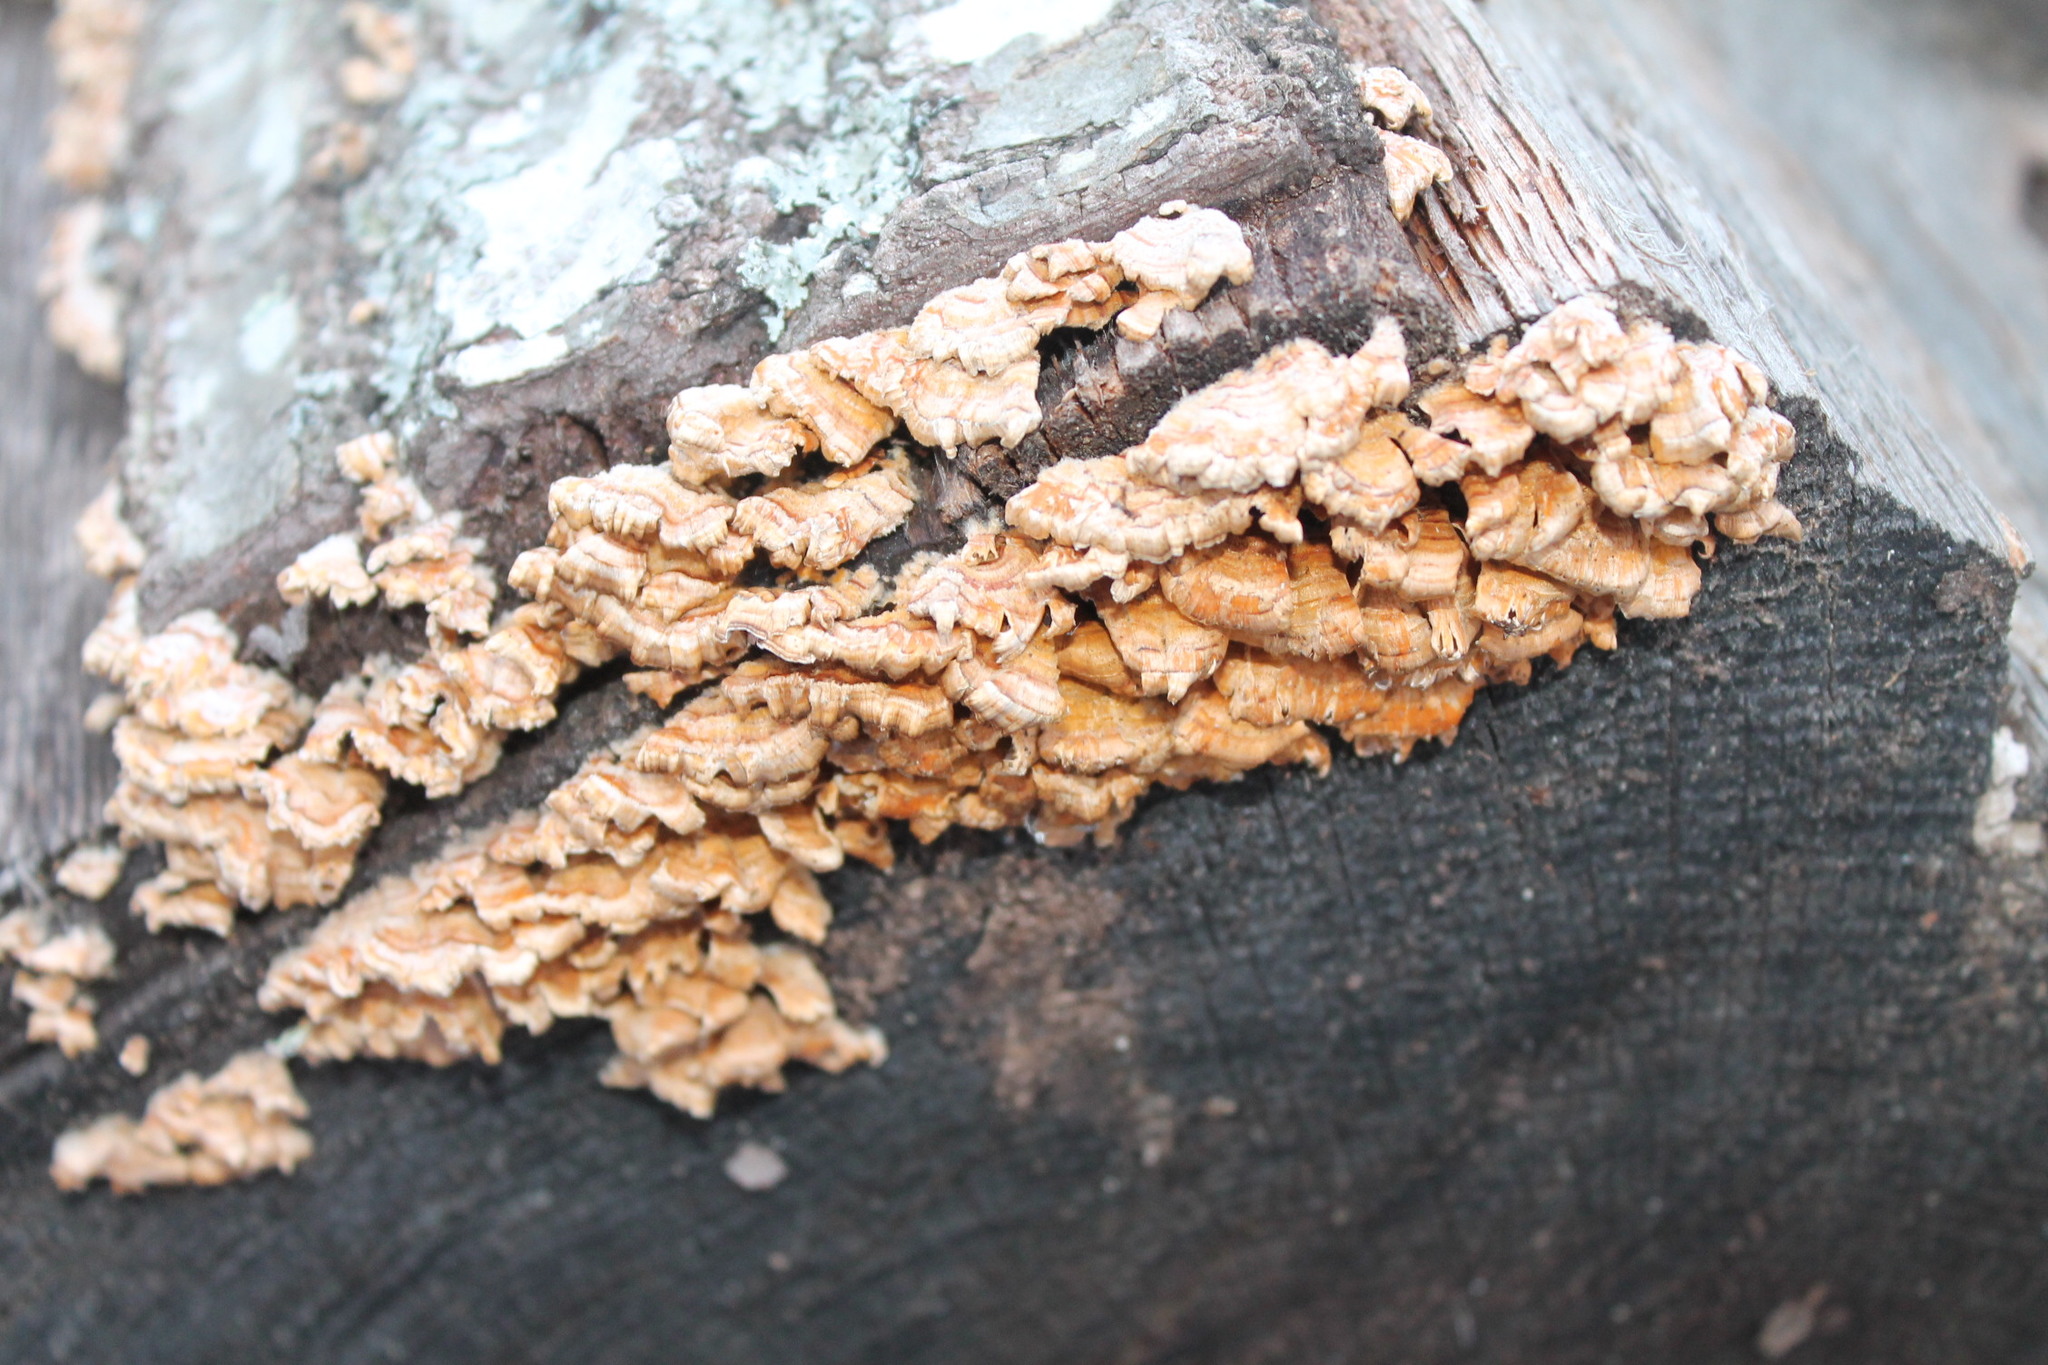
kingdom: Fungi
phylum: Basidiomycota
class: Agaricomycetes
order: Russulales
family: Stereaceae
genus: Stereum
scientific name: Stereum complicatum
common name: Crowded parchment
